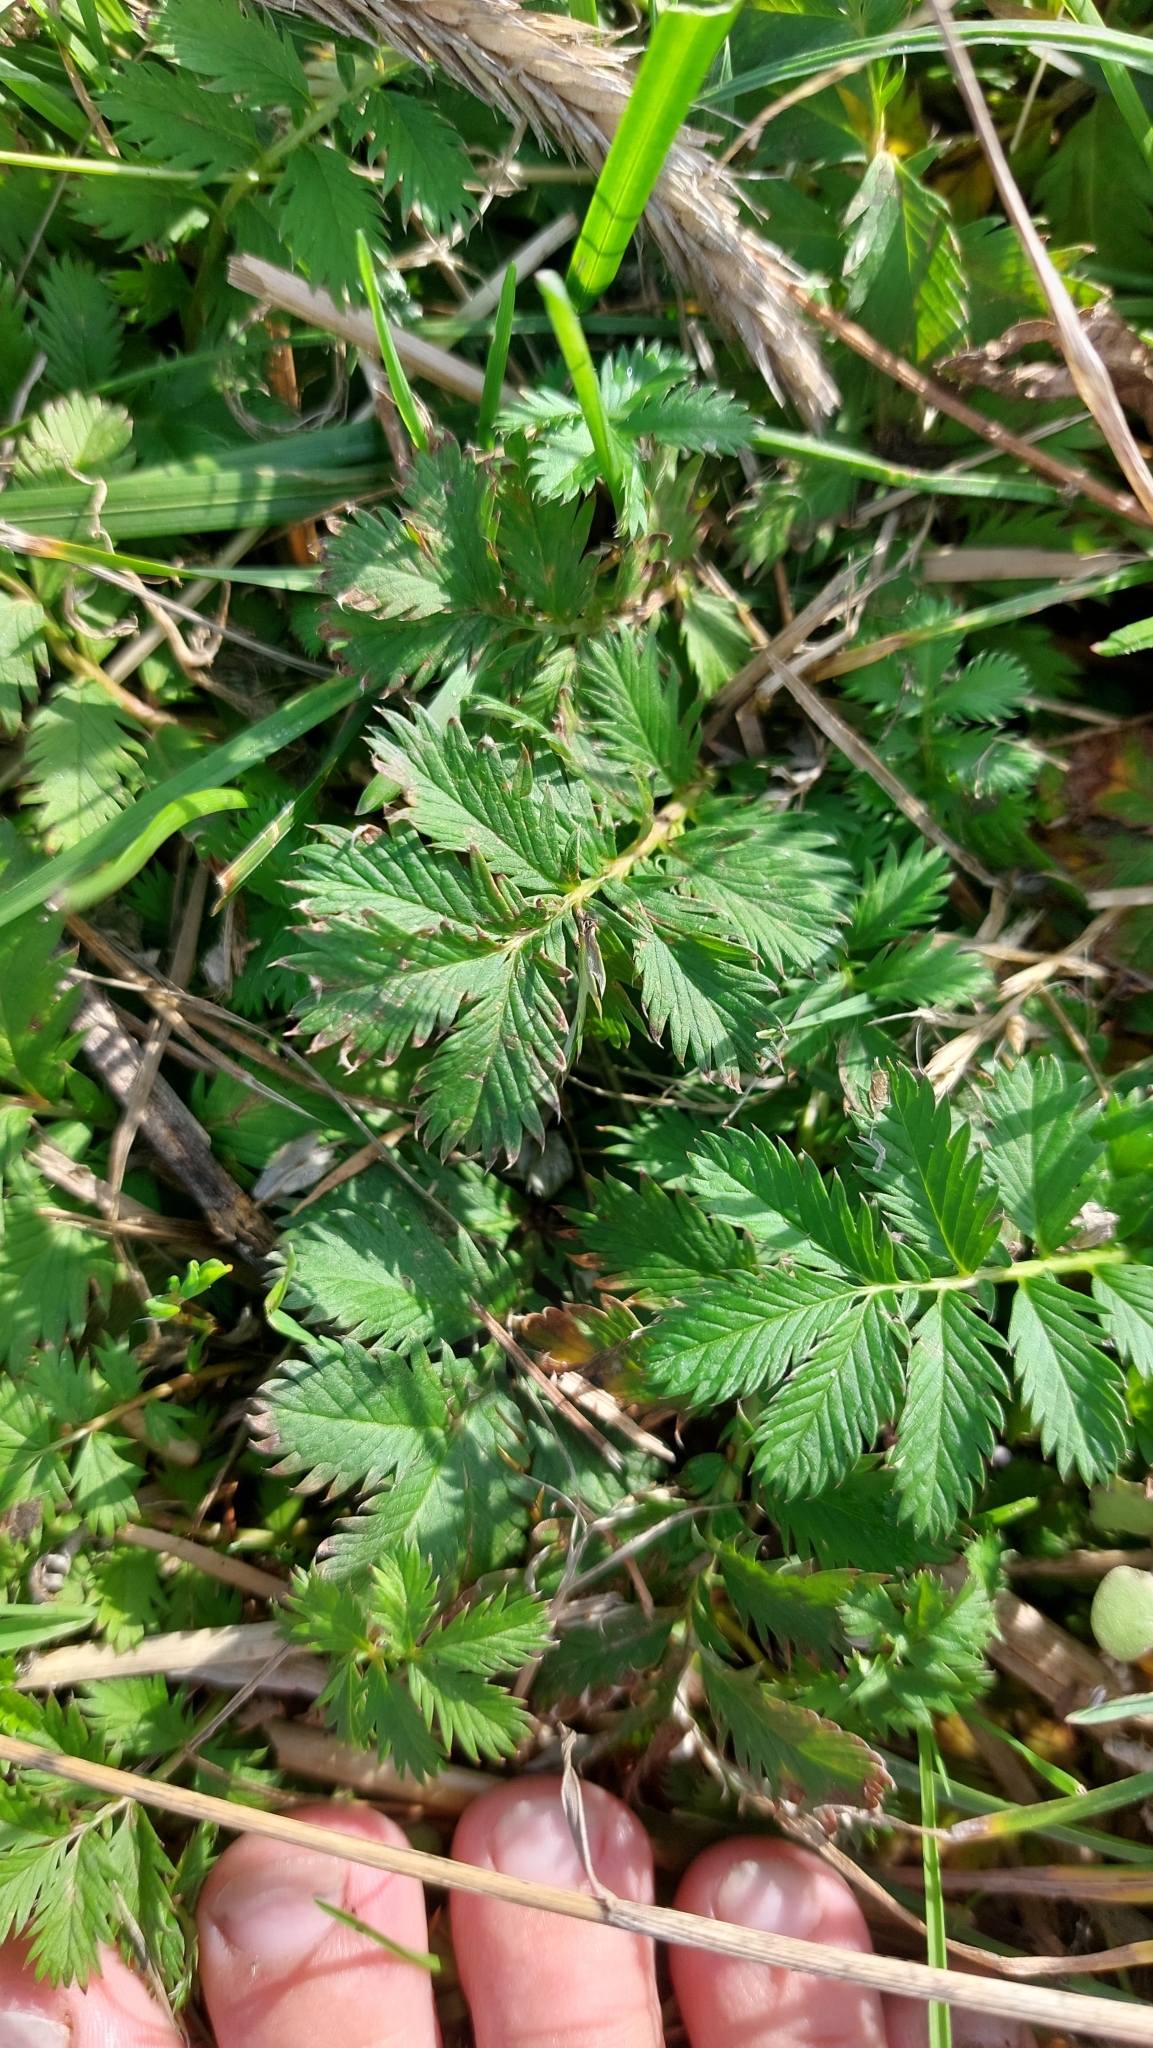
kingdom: Plantae
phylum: Tracheophyta
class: Magnoliopsida
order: Rosales
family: Rosaceae
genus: Argentina
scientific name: Argentina anserina
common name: Common silverweed
